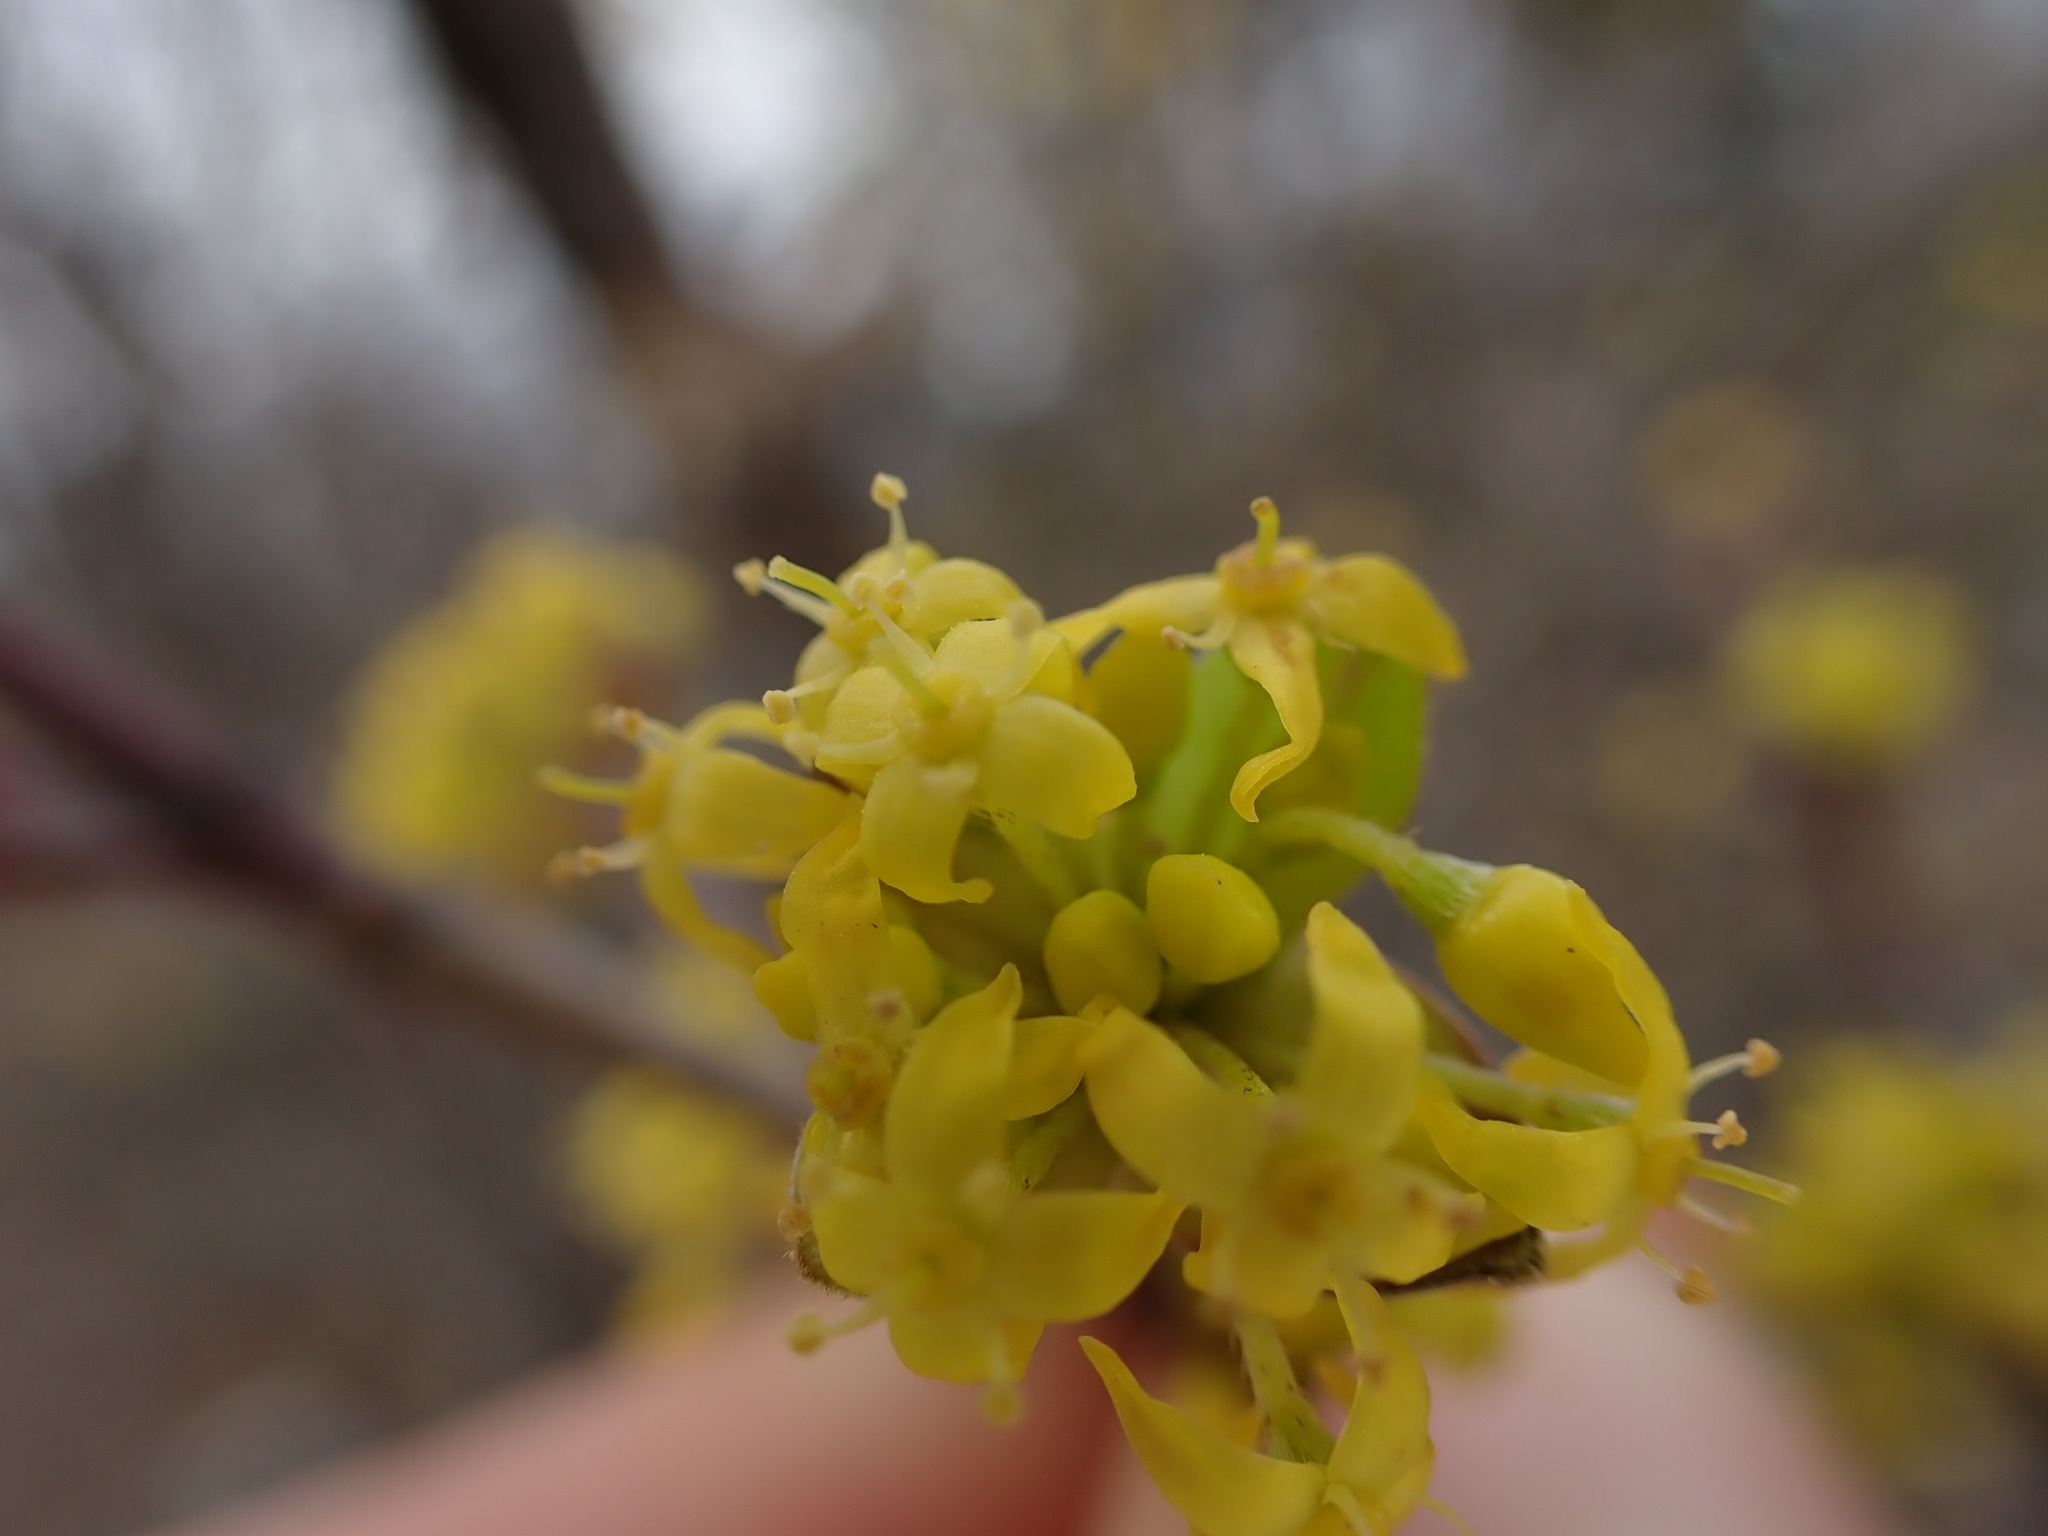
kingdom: Plantae
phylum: Tracheophyta
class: Magnoliopsida
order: Cornales
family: Cornaceae
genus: Cornus
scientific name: Cornus mas
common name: Cornelian-cherry
